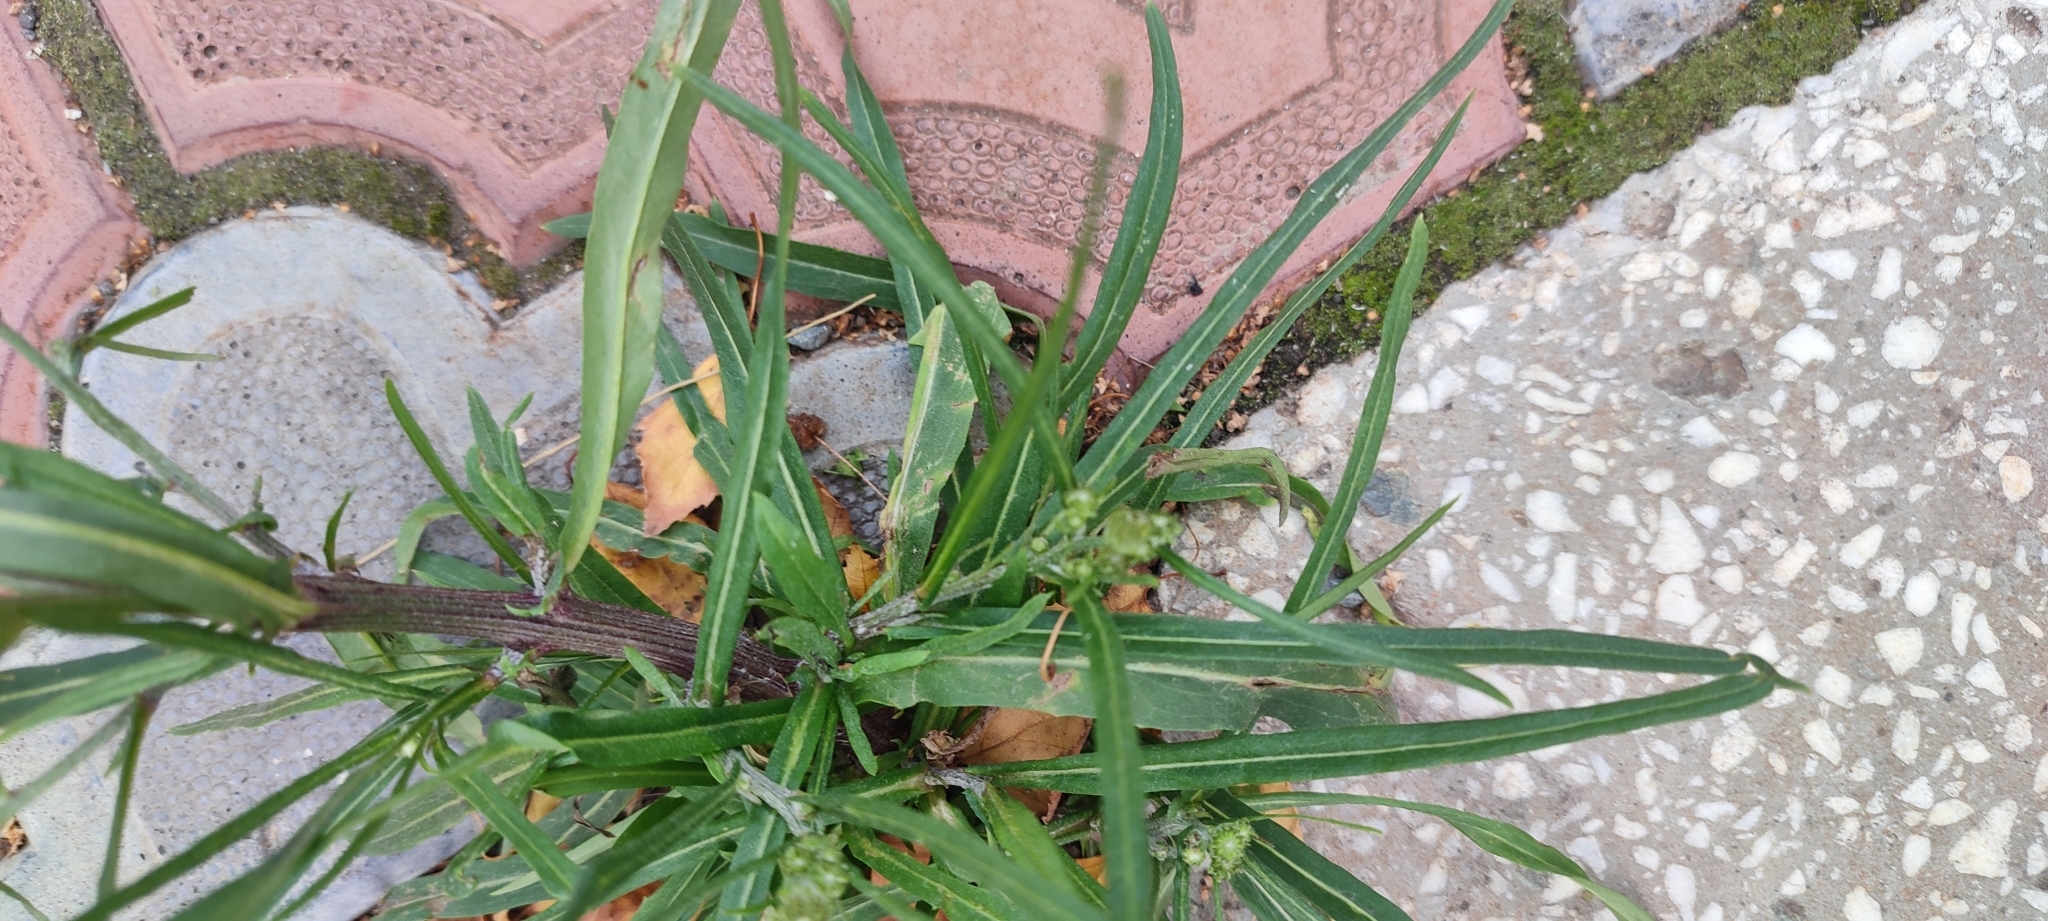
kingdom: Plantae
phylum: Tracheophyta
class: Magnoliopsida
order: Asterales
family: Asteraceae
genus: Crepis
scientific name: Crepis tectorum
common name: Narrow-leaved hawk's-beard
